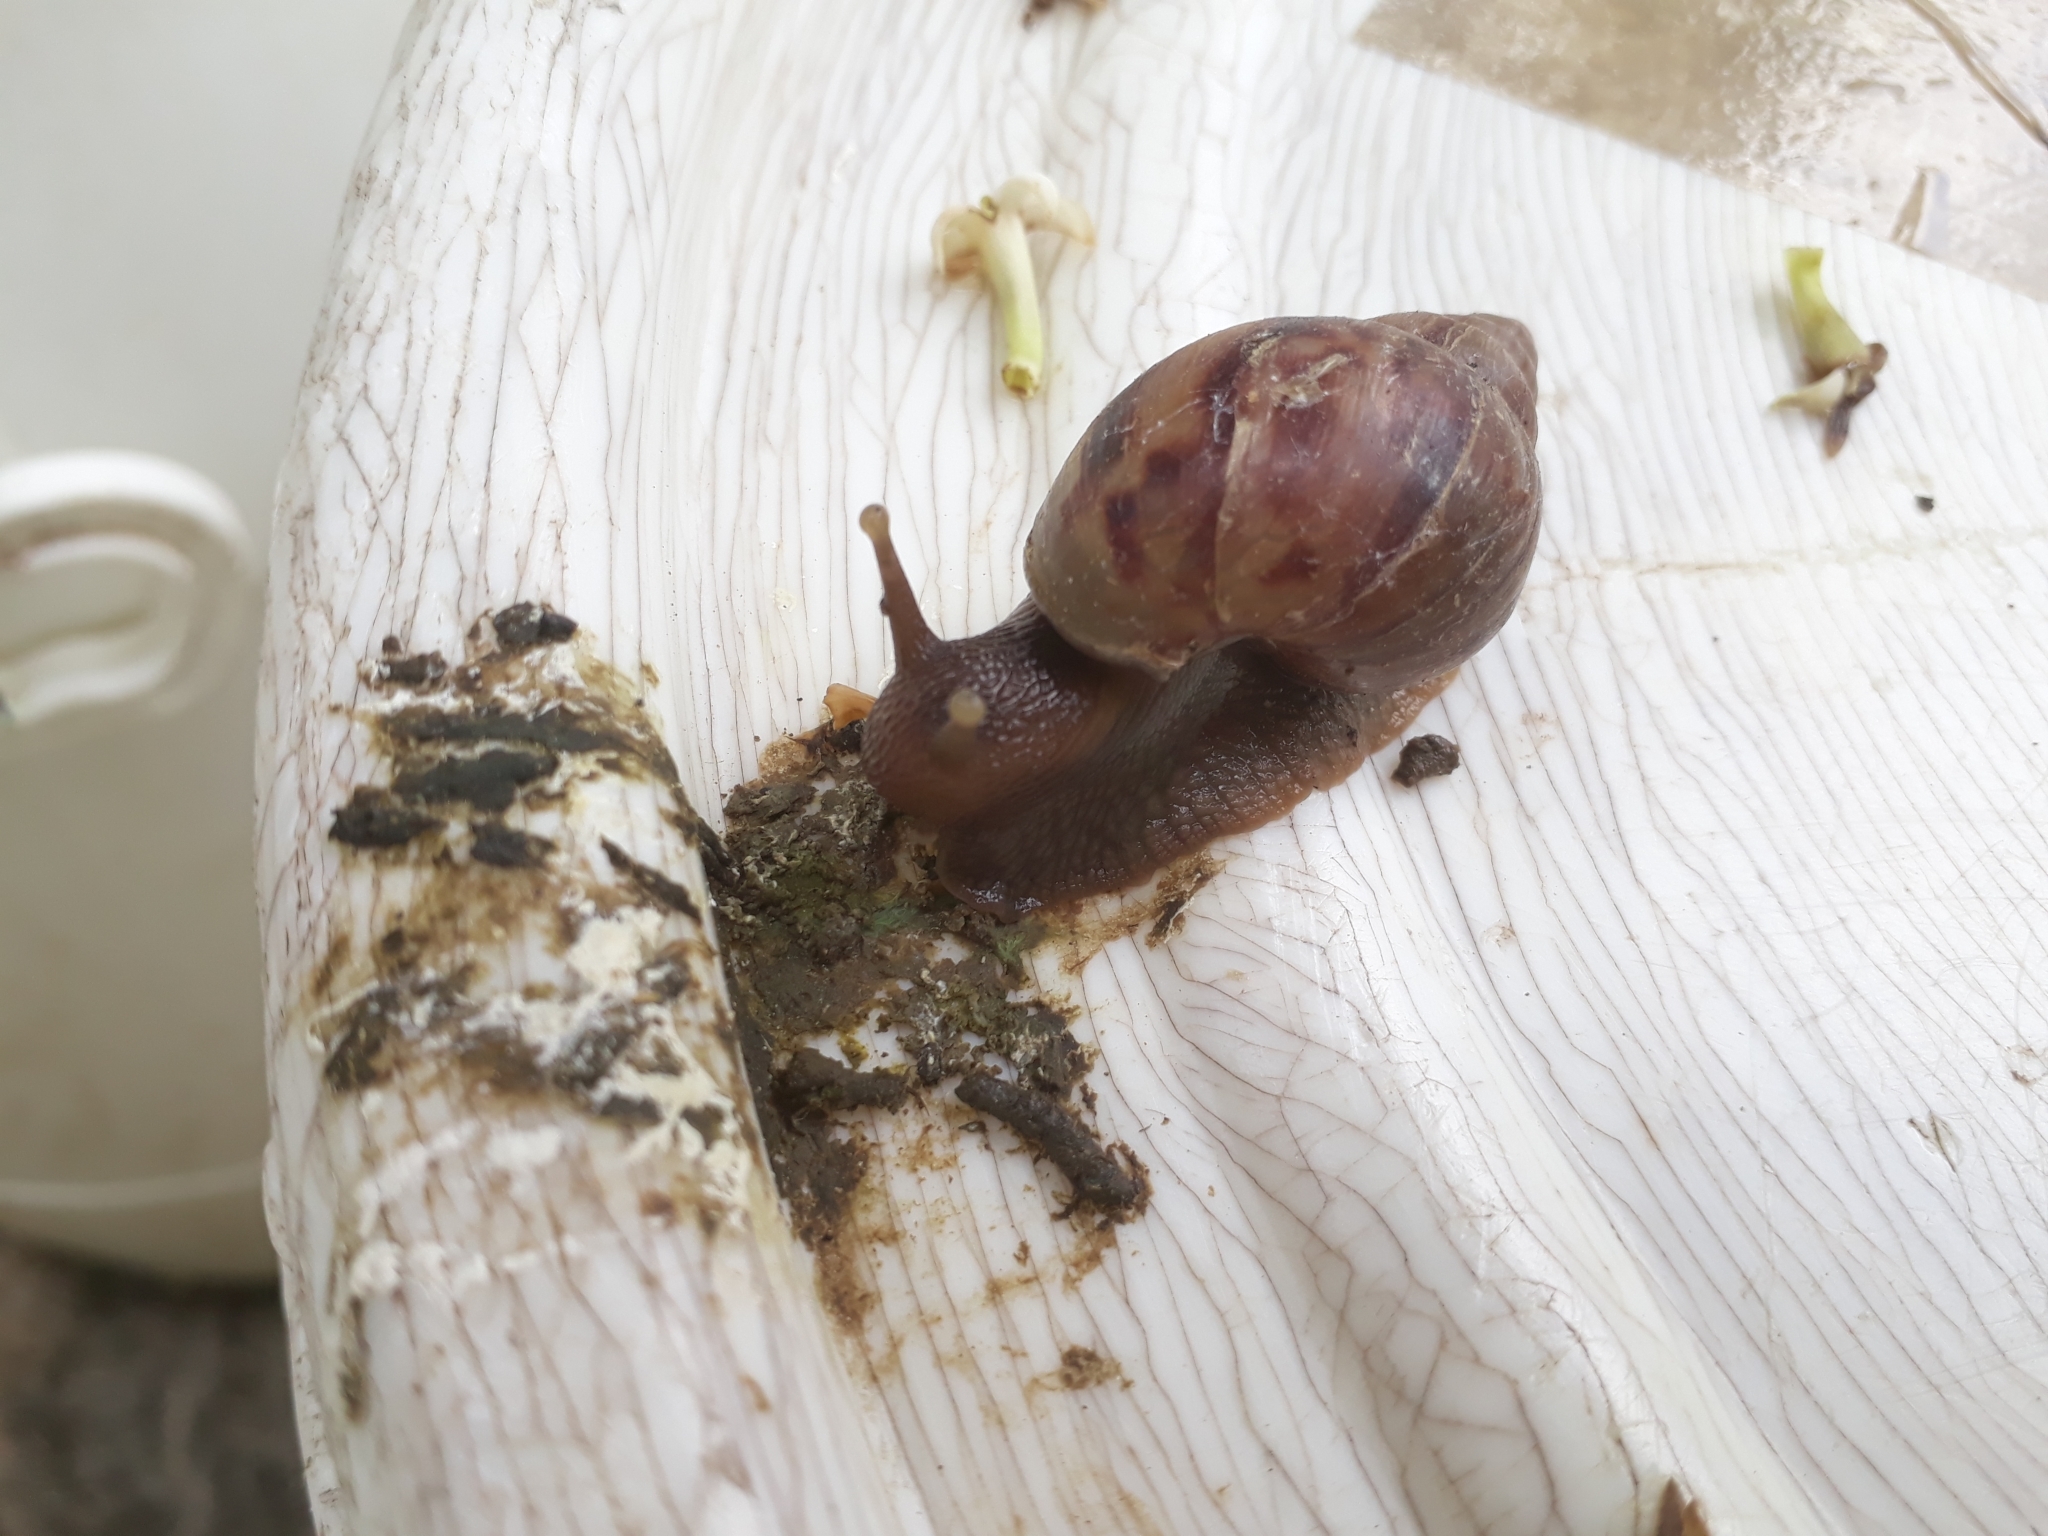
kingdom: Animalia
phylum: Mollusca
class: Gastropoda
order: Stylommatophora
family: Achatinidae
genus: Lissachatina
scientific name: Lissachatina fulica
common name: Giant african snail
